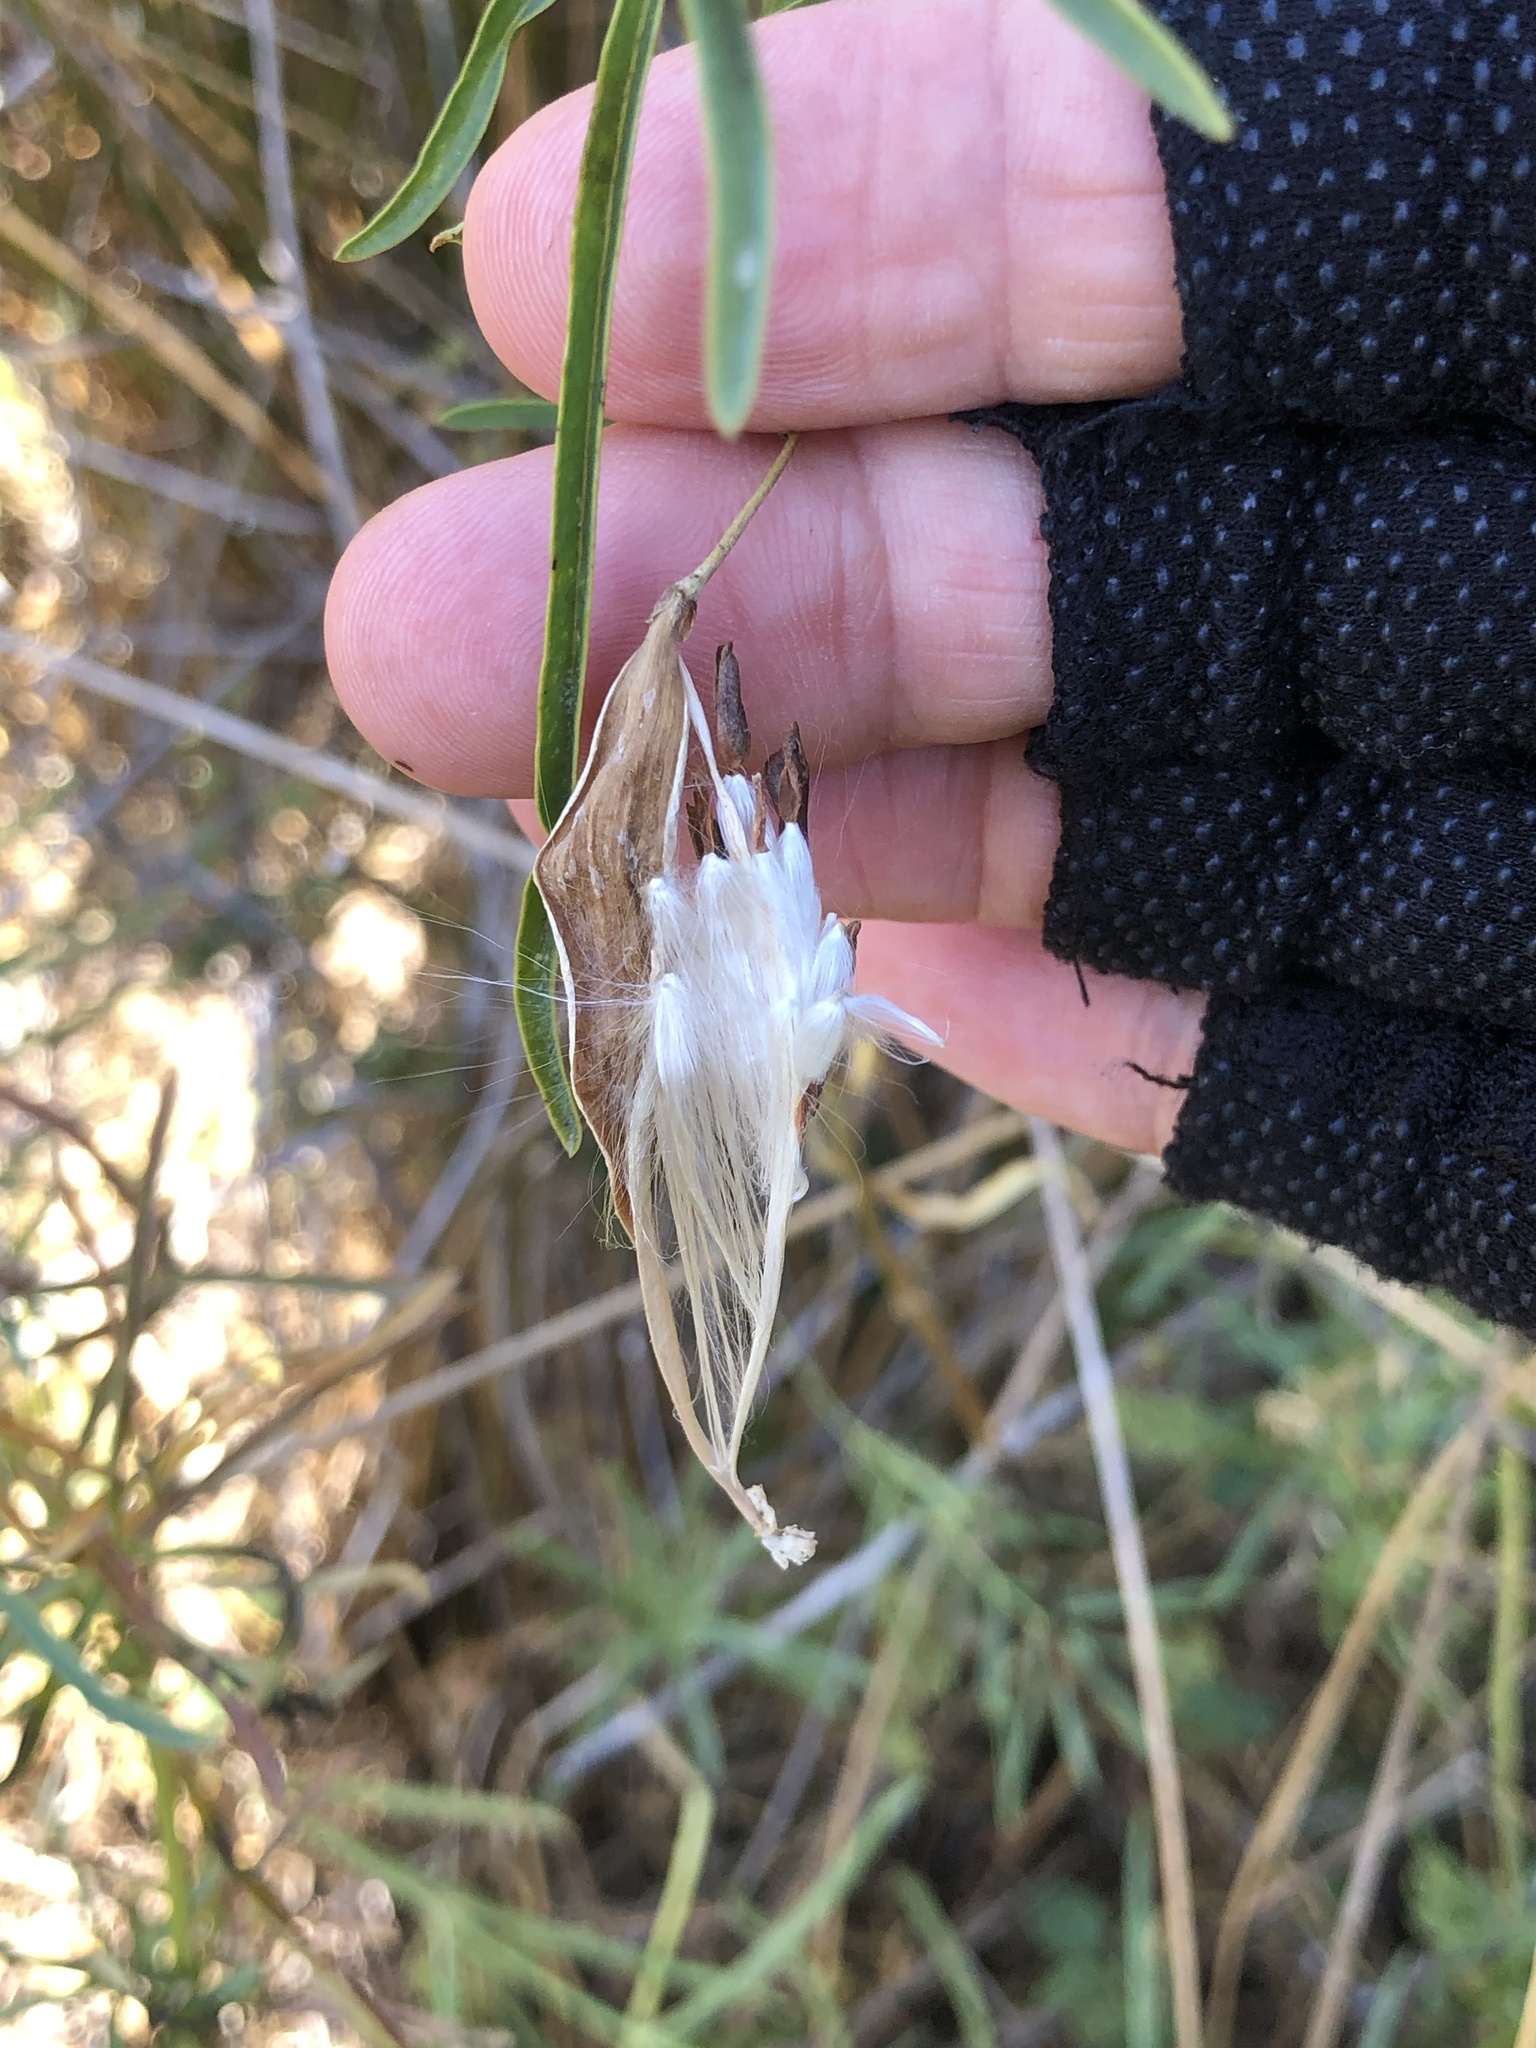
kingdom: Plantae
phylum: Tracheophyta
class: Magnoliopsida
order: Gentianales
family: Apocynaceae
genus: Asclepias
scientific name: Asclepias fascicularis
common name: Mexican milkweed
